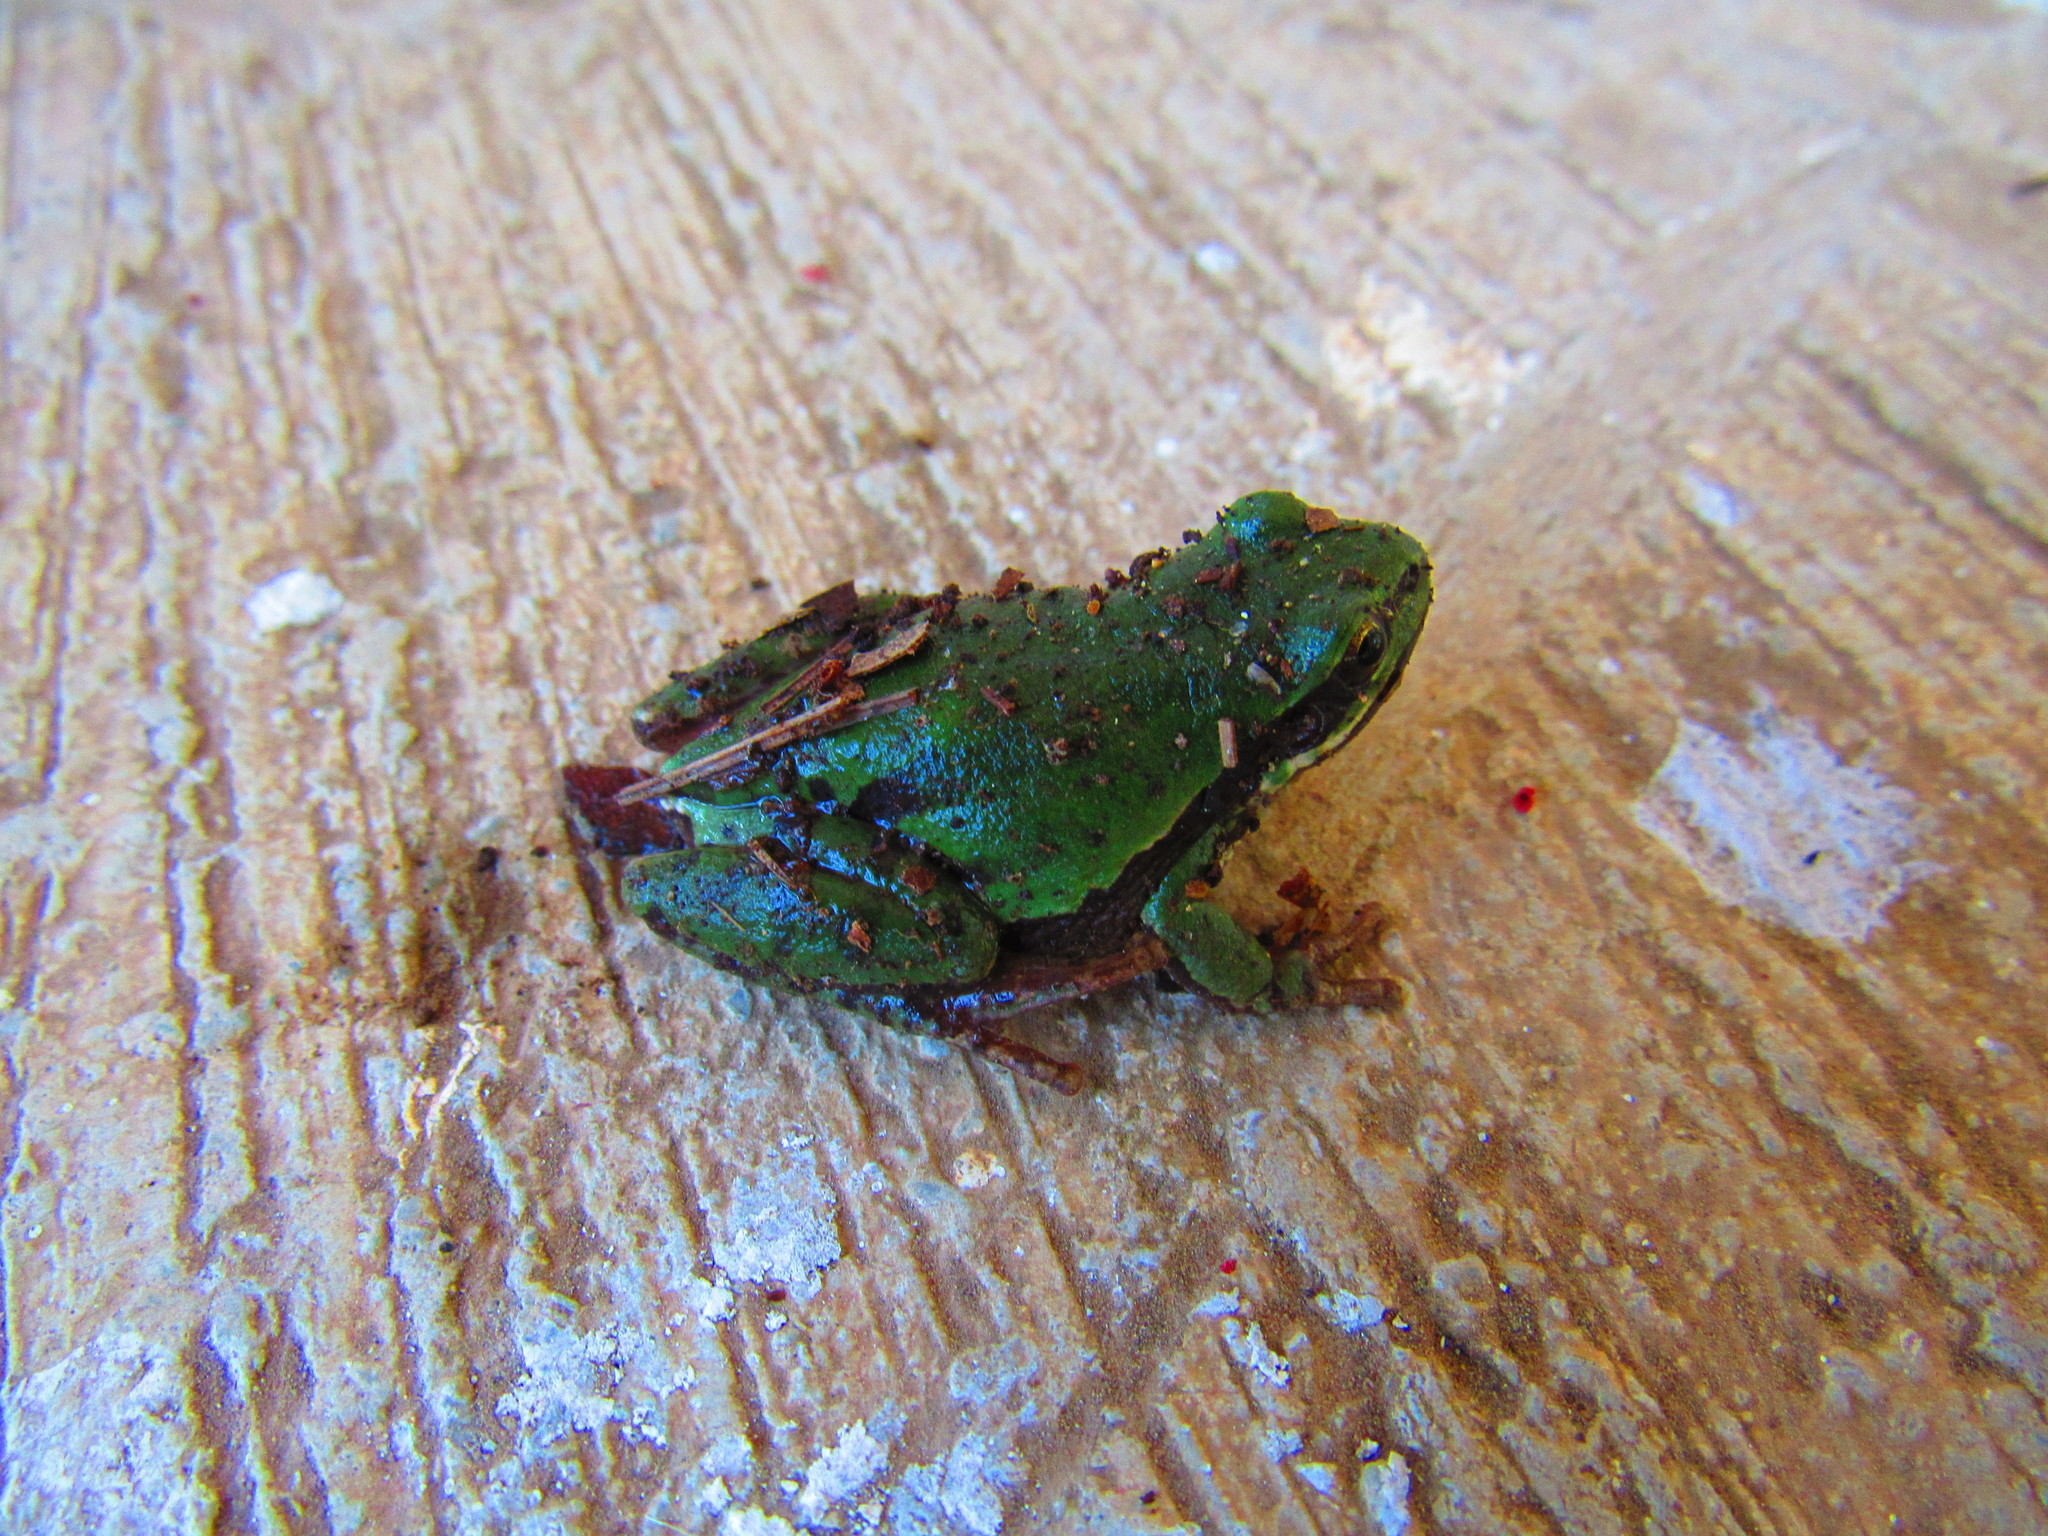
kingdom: Animalia
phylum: Chordata
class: Amphibia
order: Anura
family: Hylidae
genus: Dryophytes
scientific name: Dryophytes eximius
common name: Mountain treefrog
